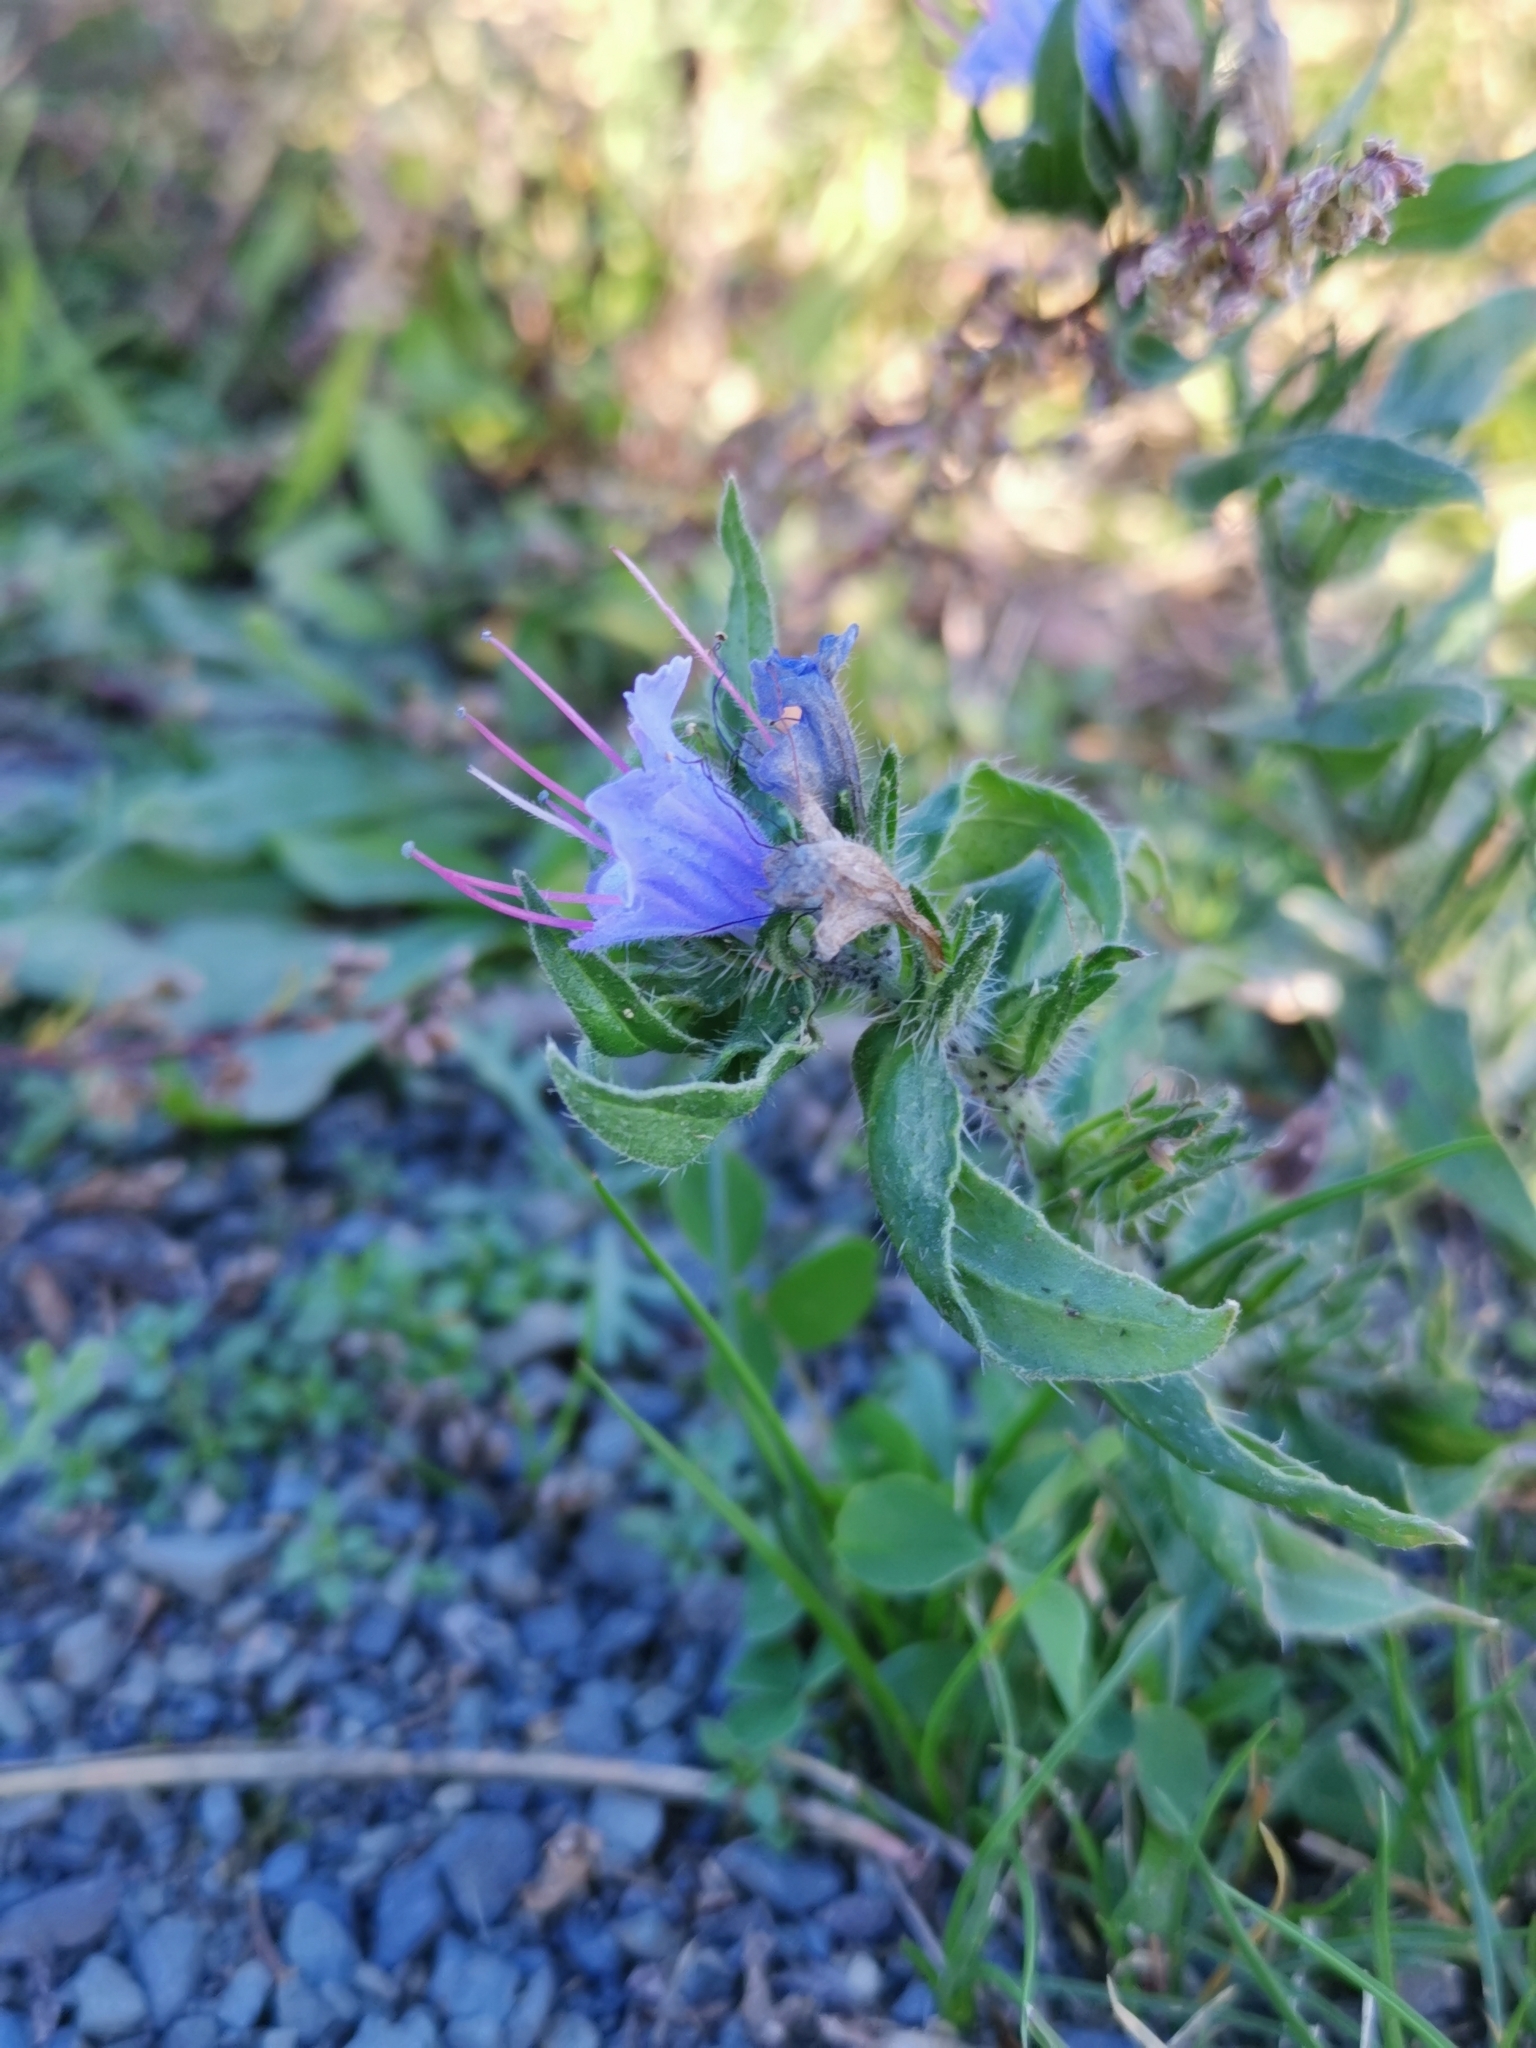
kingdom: Plantae
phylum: Tracheophyta
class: Magnoliopsida
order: Boraginales
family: Boraginaceae
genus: Echium
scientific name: Echium vulgare
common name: Common viper's bugloss
